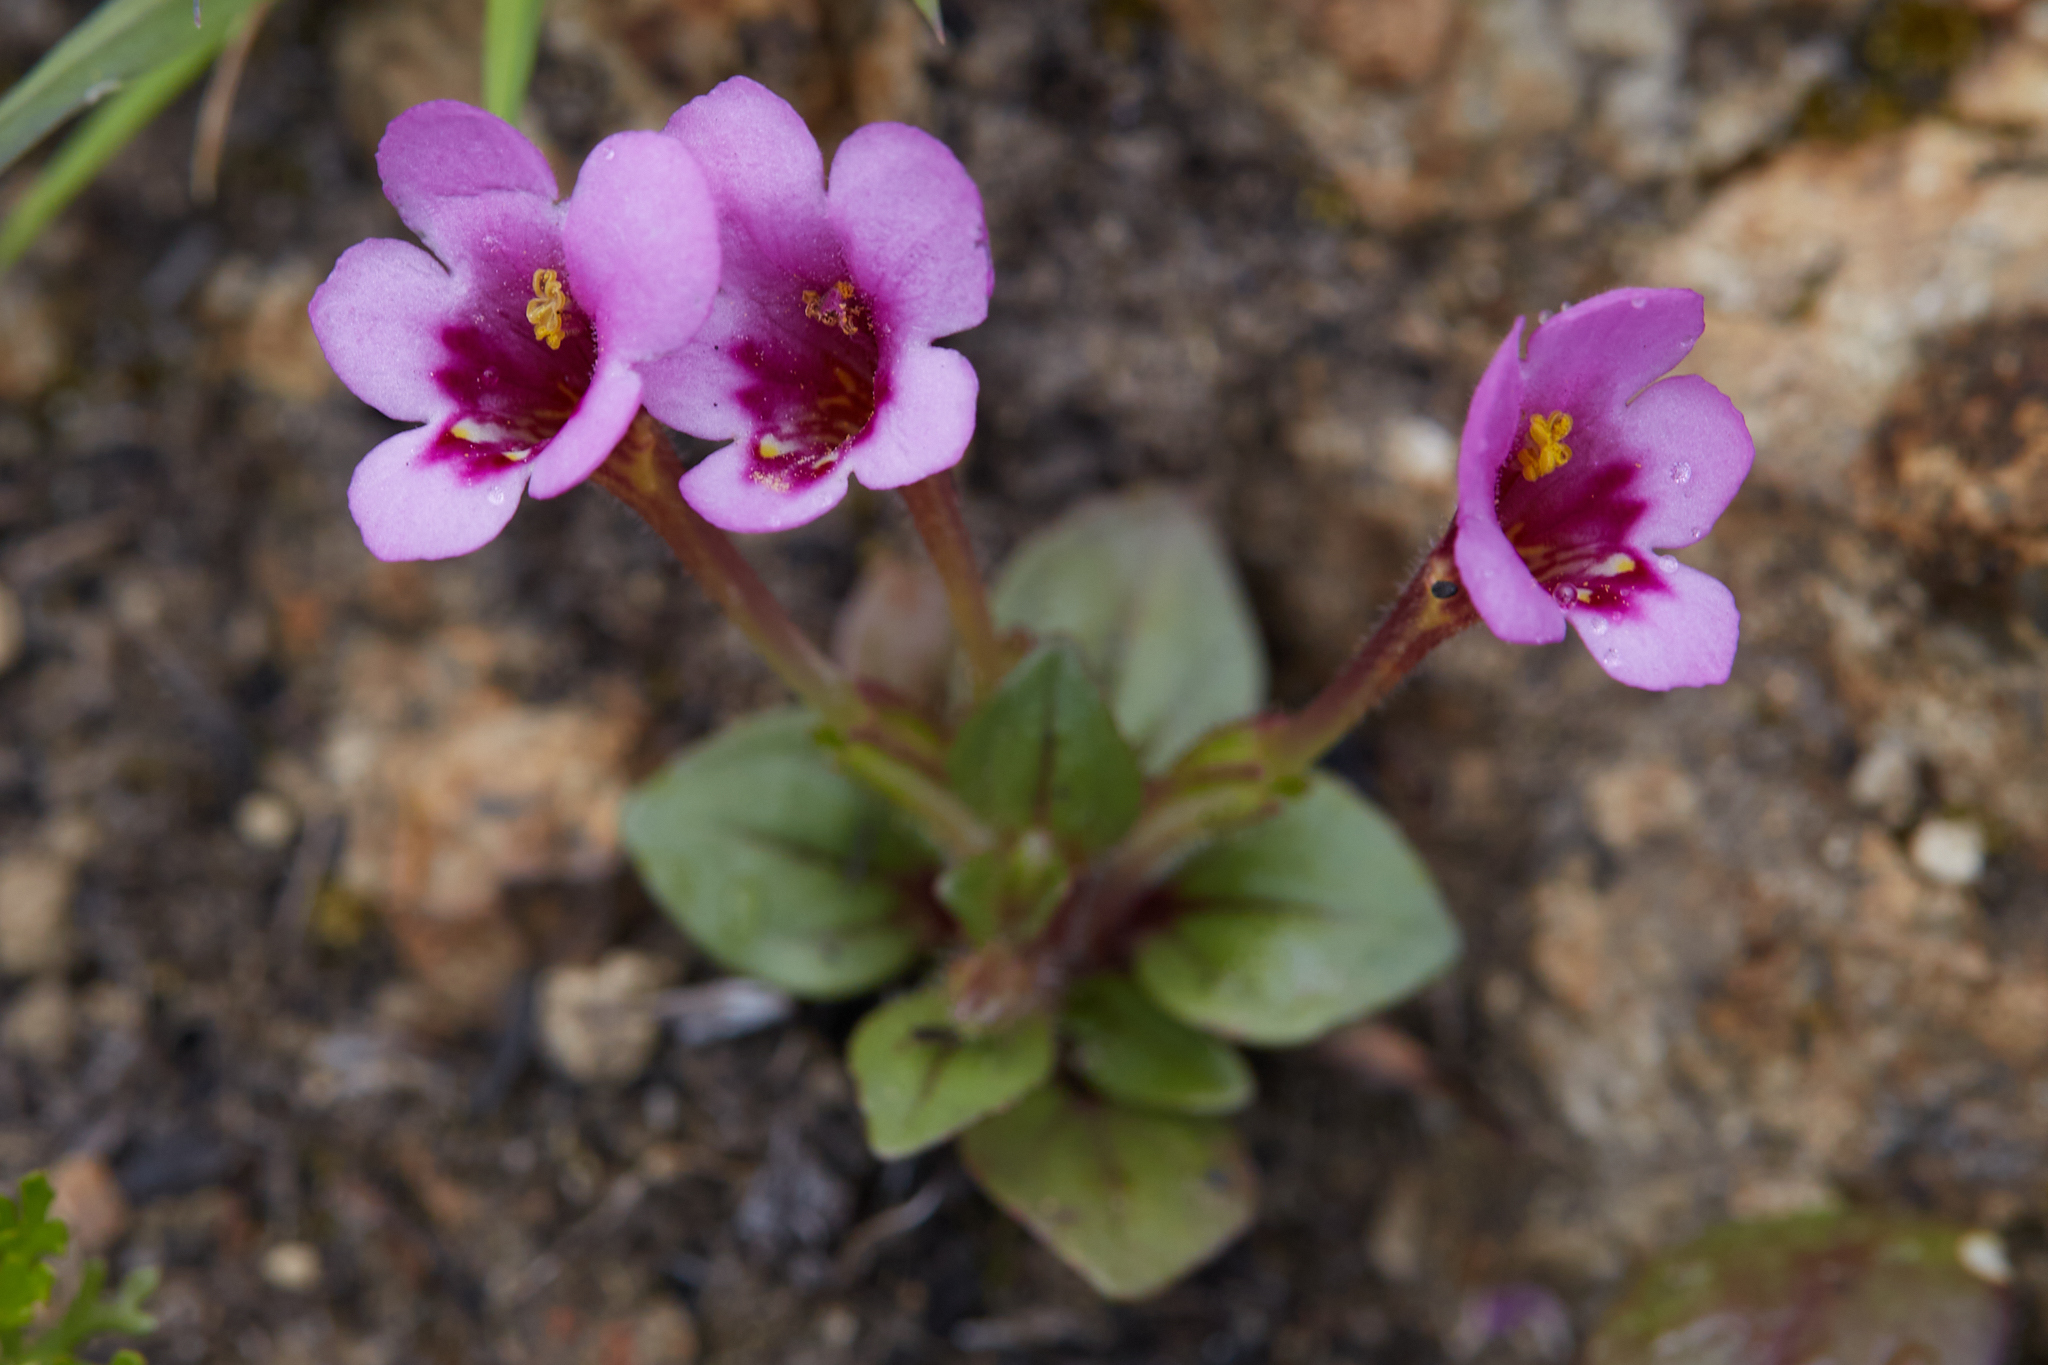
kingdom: Plantae
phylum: Tracheophyta
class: Magnoliopsida
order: Lamiales
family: Phrymaceae
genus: Diplacus
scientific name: Diplacus congdonii
